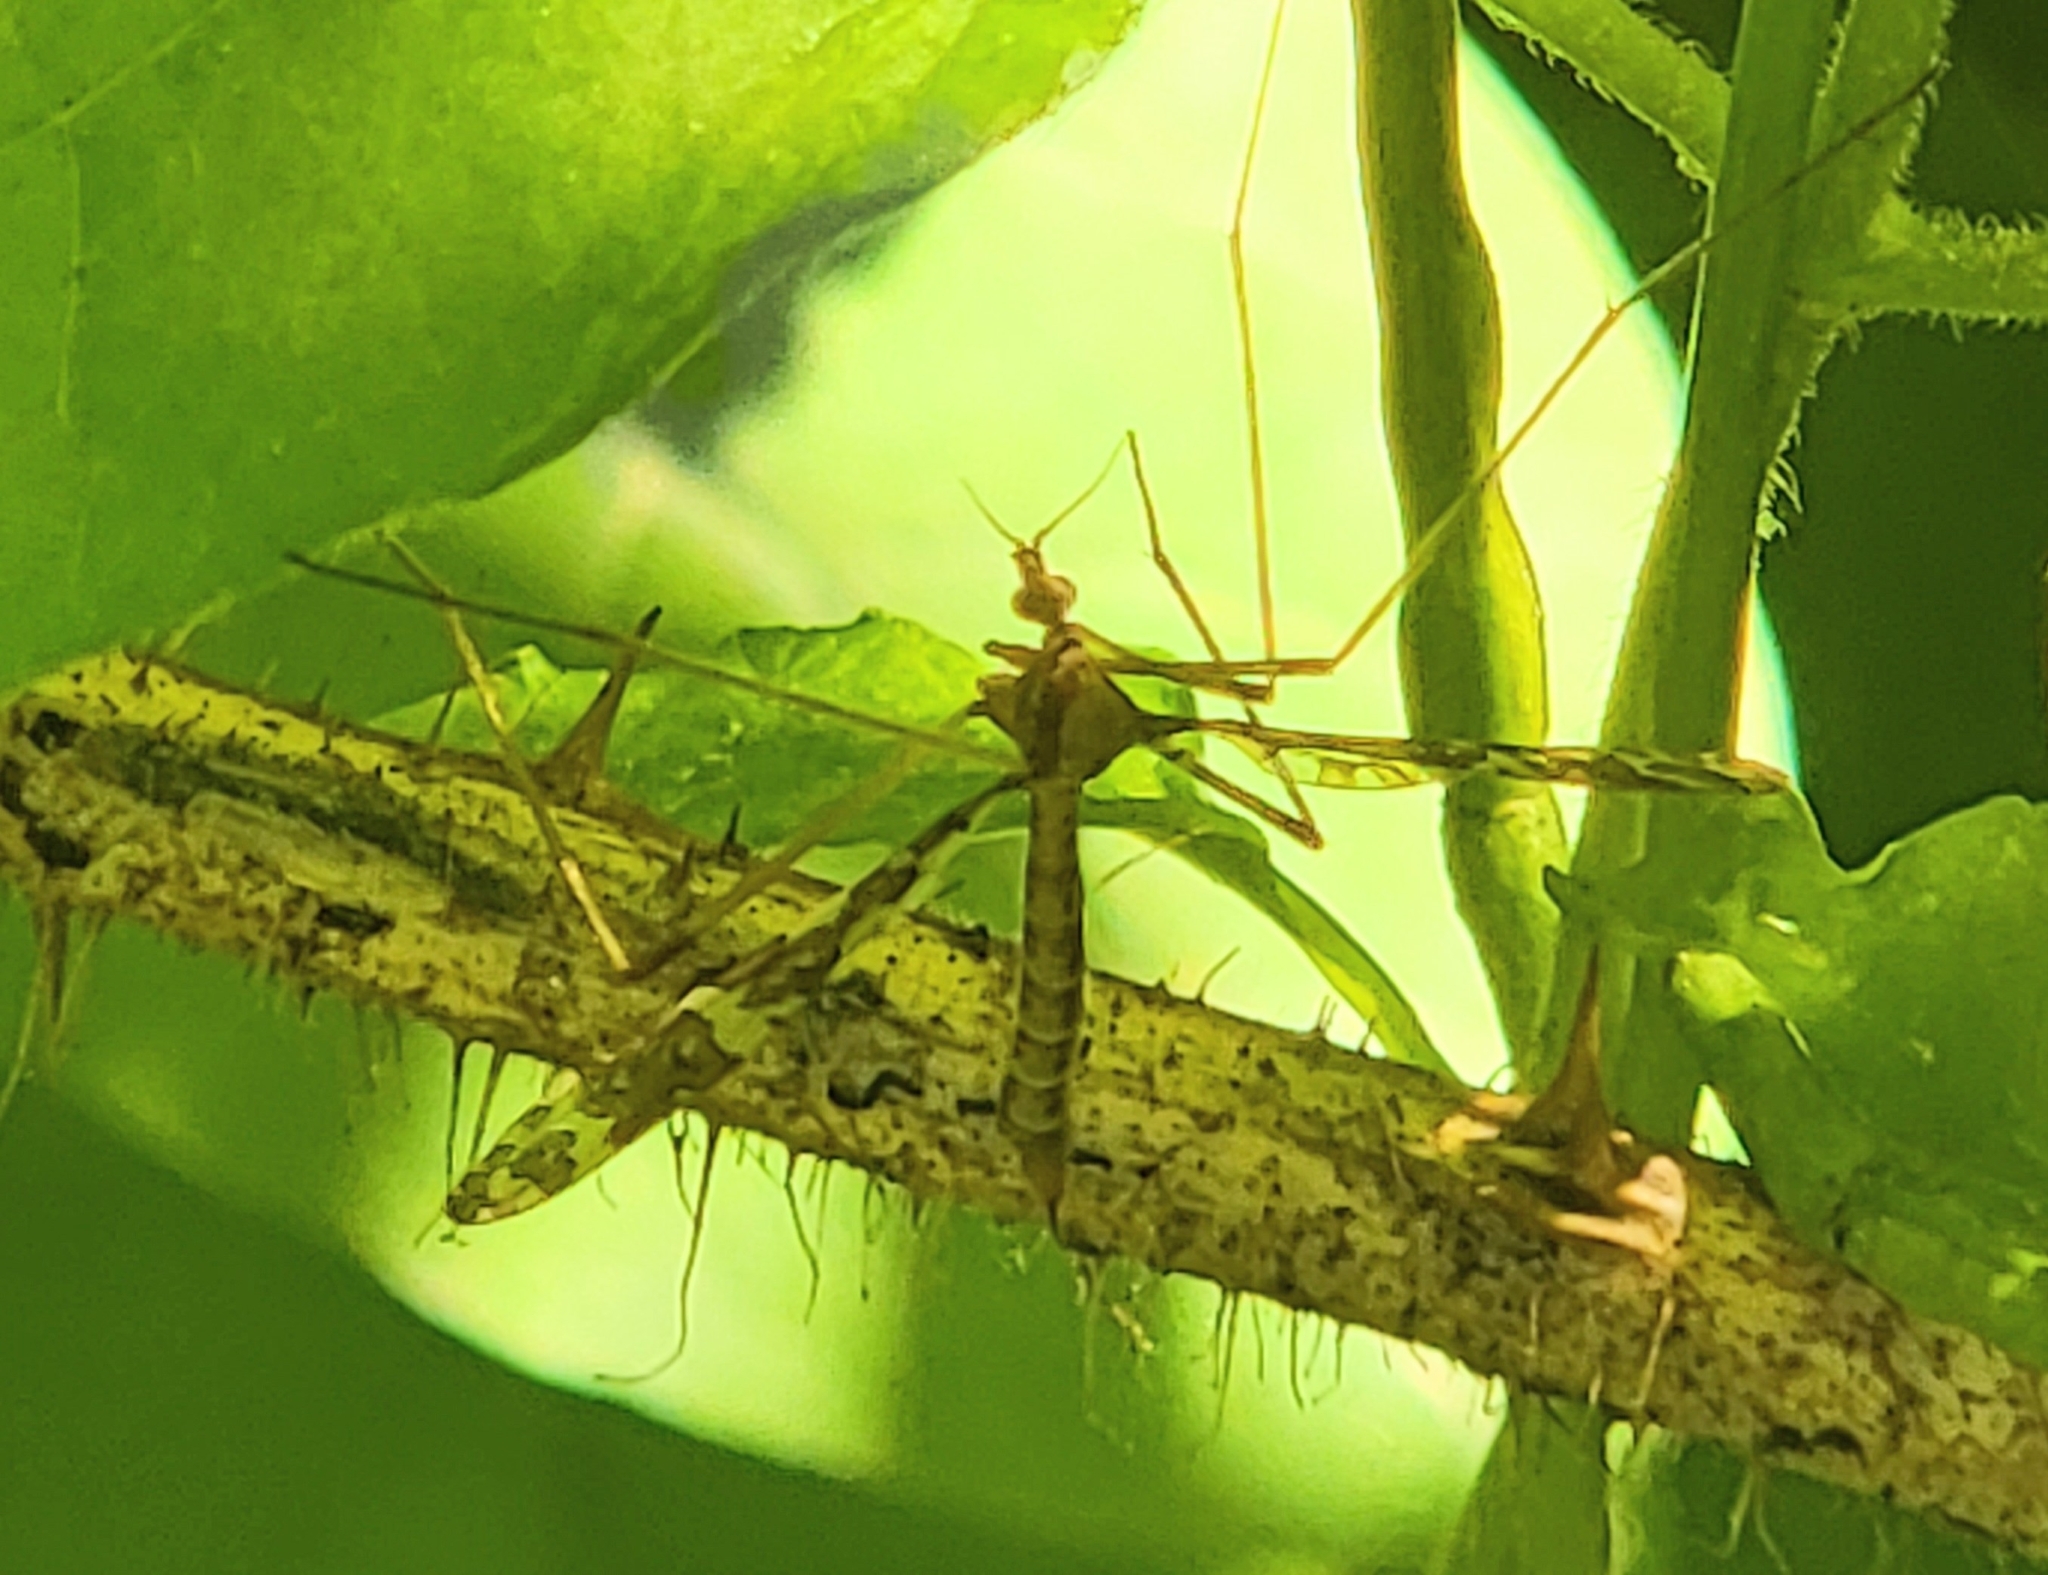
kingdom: Animalia
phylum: Arthropoda
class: Insecta
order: Diptera
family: Limoniidae
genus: Epiphragma
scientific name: Epiphragma fasciapenne
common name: Band-winged crane fly
